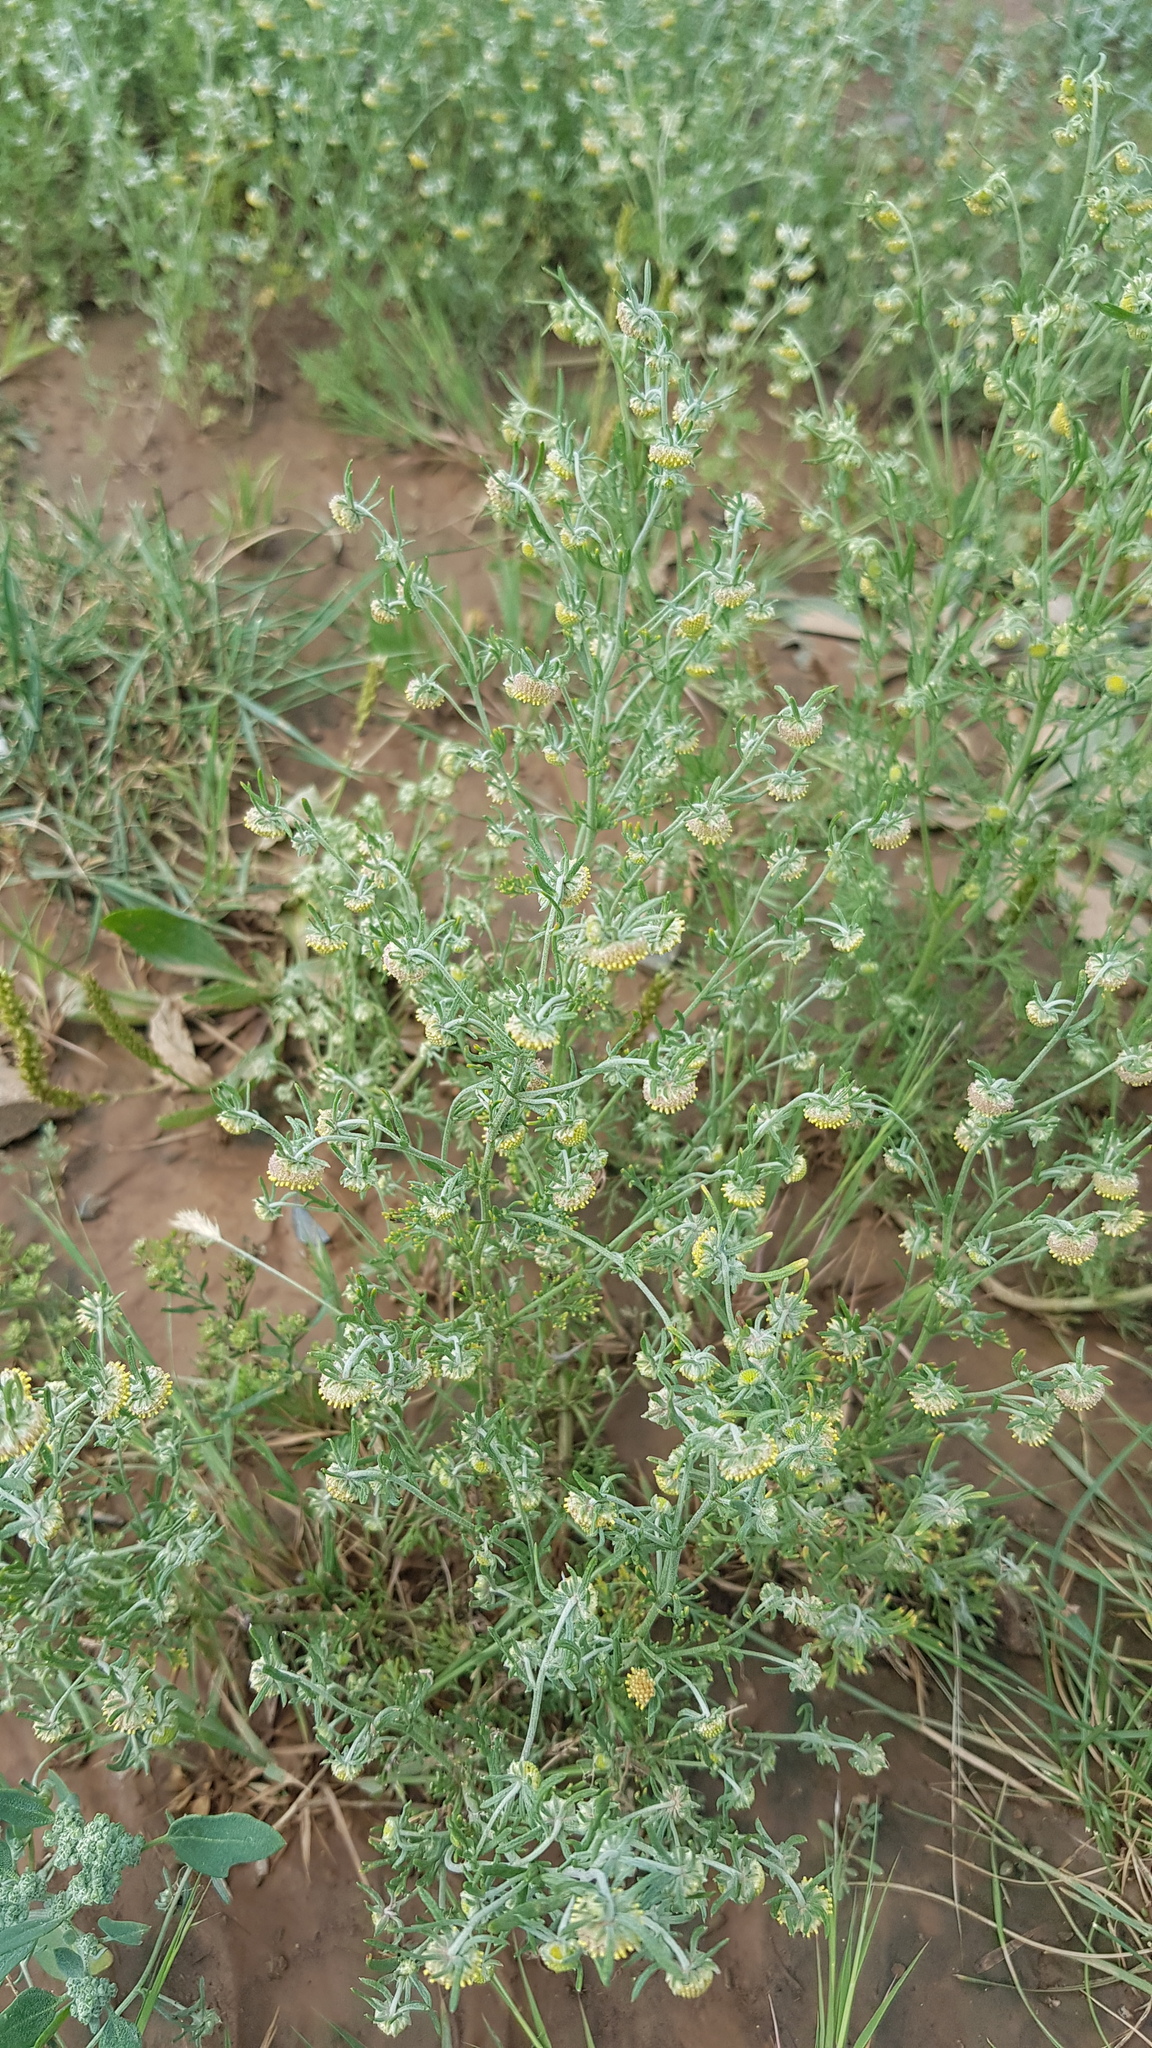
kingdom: Plantae
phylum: Tracheophyta
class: Magnoliopsida
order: Asterales
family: Asteraceae
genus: Artemisia
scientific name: Artemisia macrocephala
